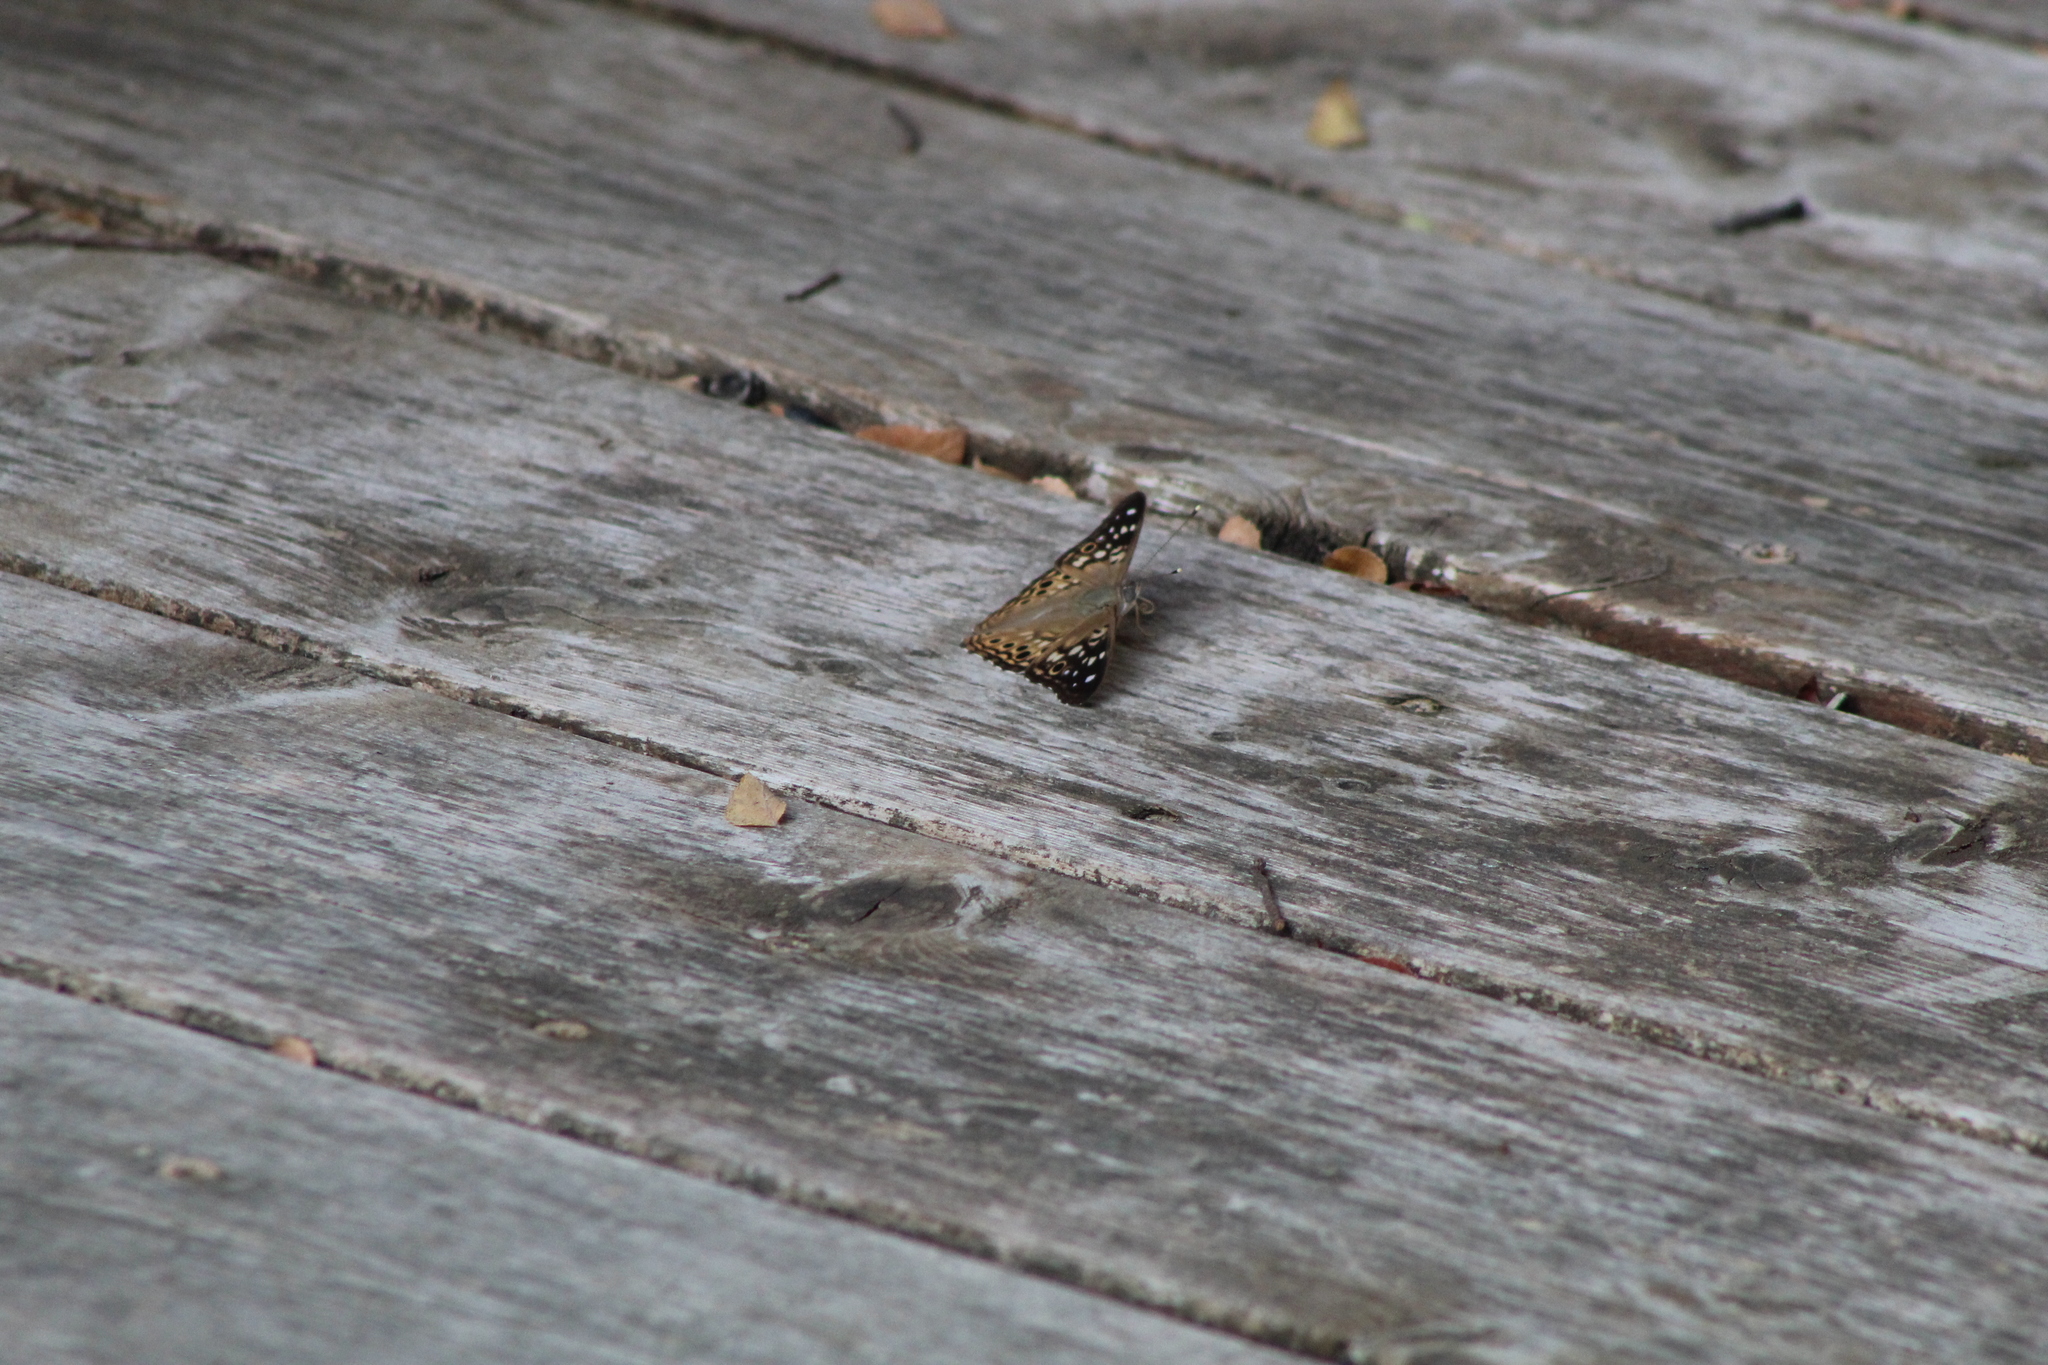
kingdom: Animalia
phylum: Arthropoda
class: Insecta
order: Lepidoptera
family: Nymphalidae
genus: Asterocampa
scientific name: Asterocampa celtis
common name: Hackberry emperor
